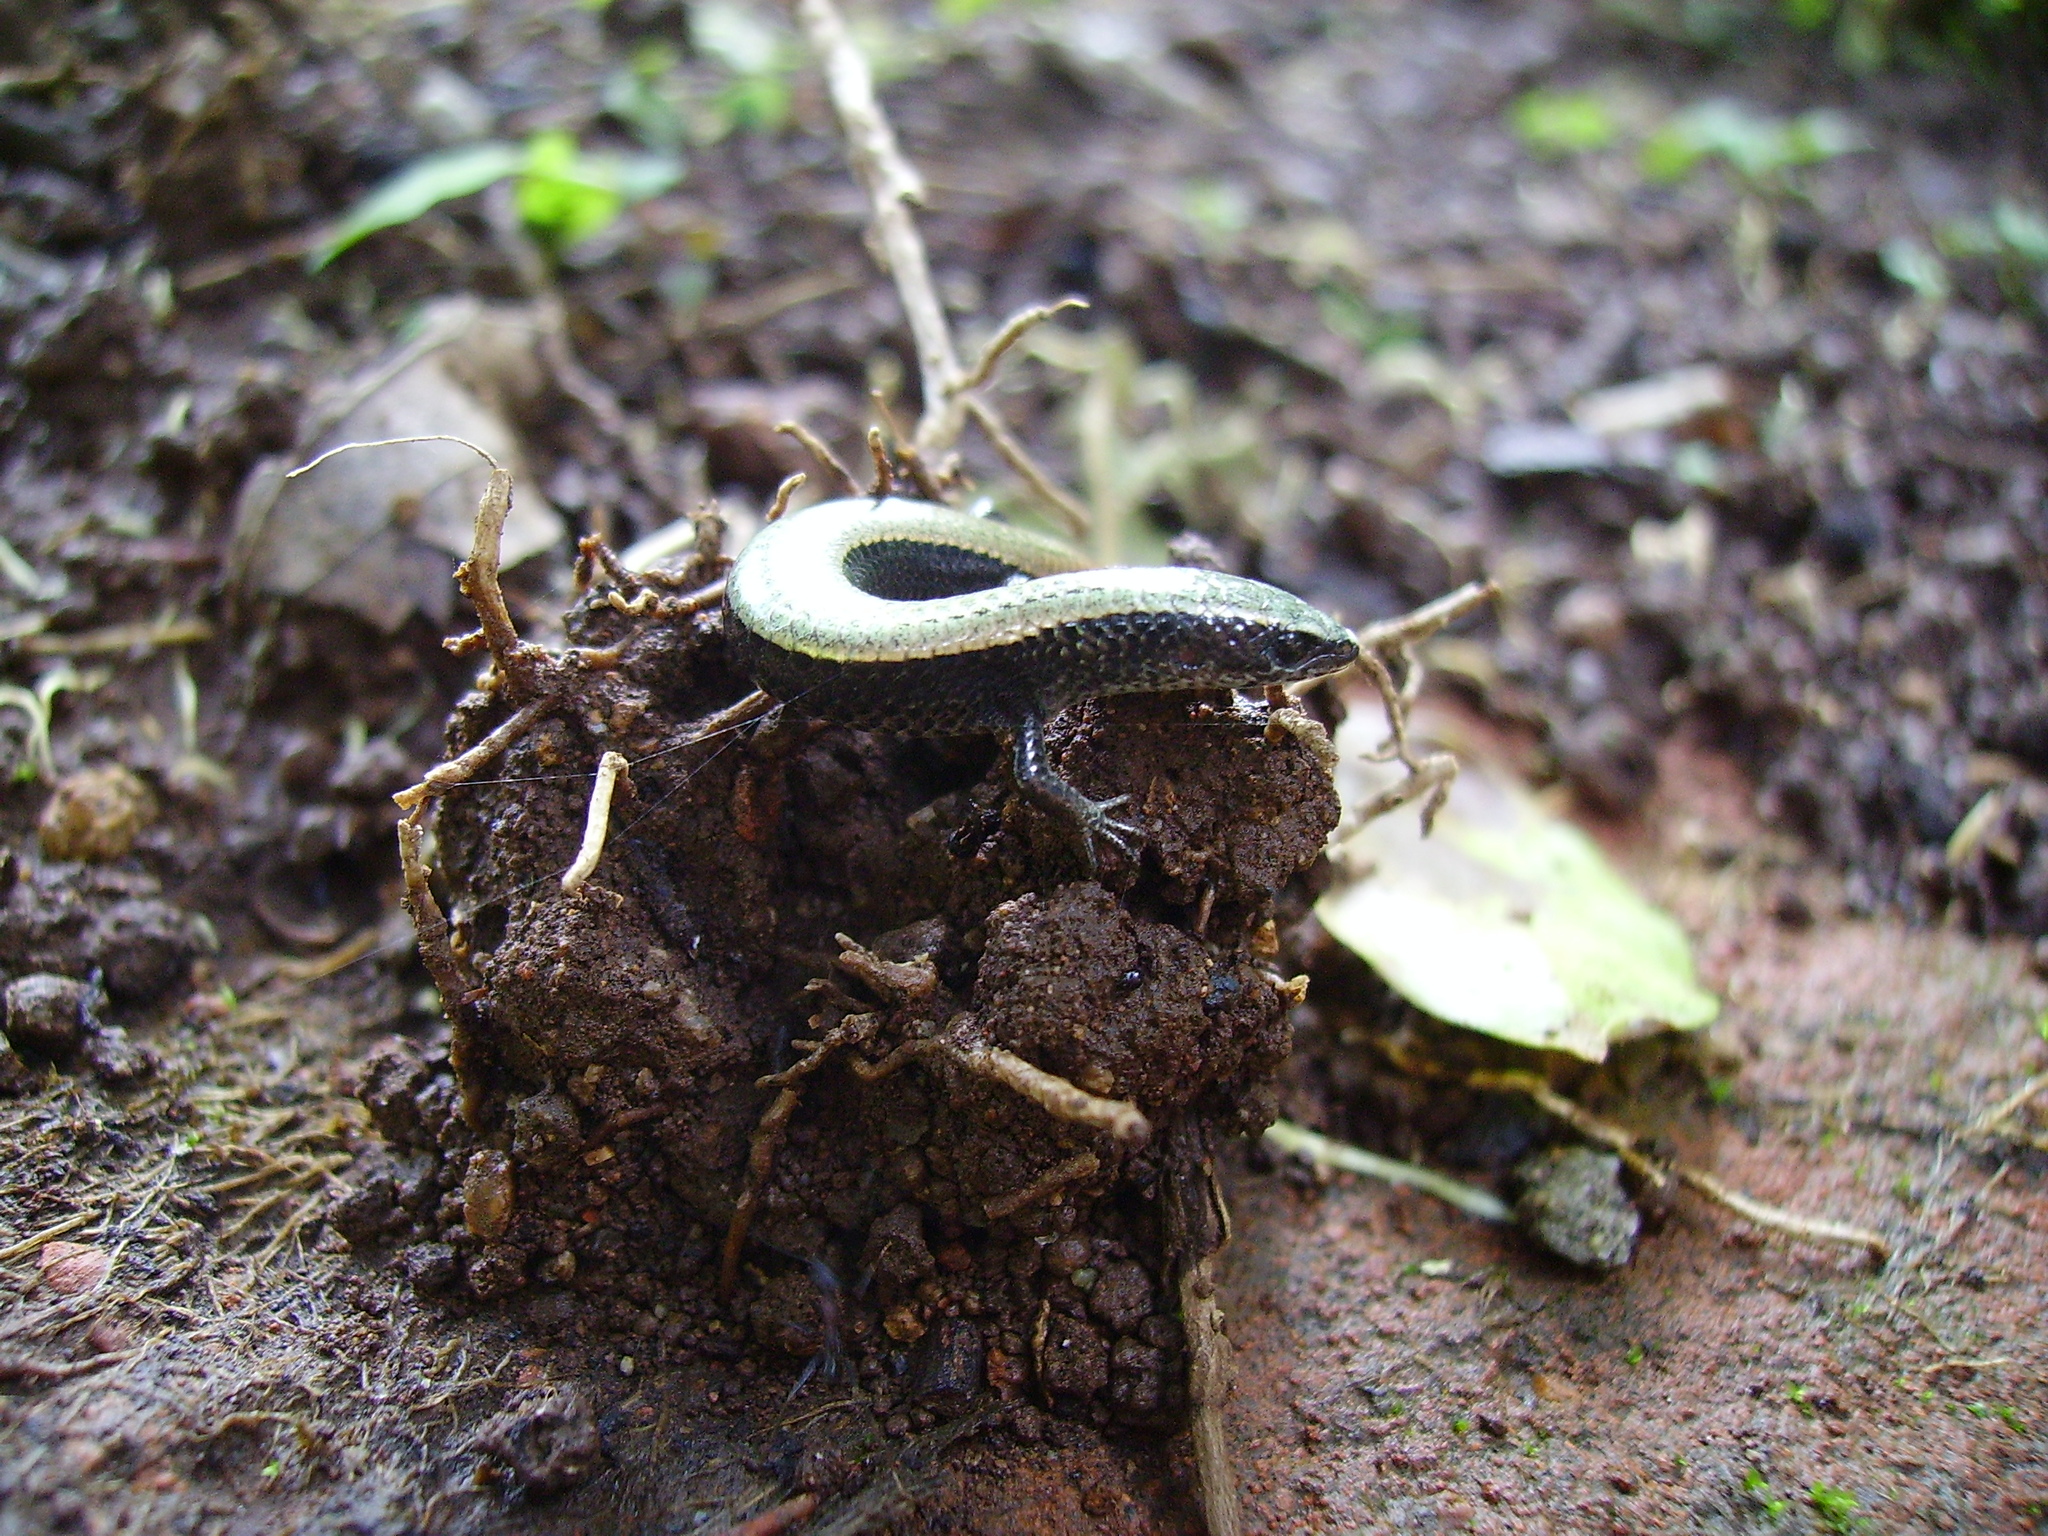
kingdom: Animalia
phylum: Chordata
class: Squamata
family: Gymnophthalmidae
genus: Gymnophthalmus
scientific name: Gymnophthalmus speciosus
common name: Golden spectacled tegu
